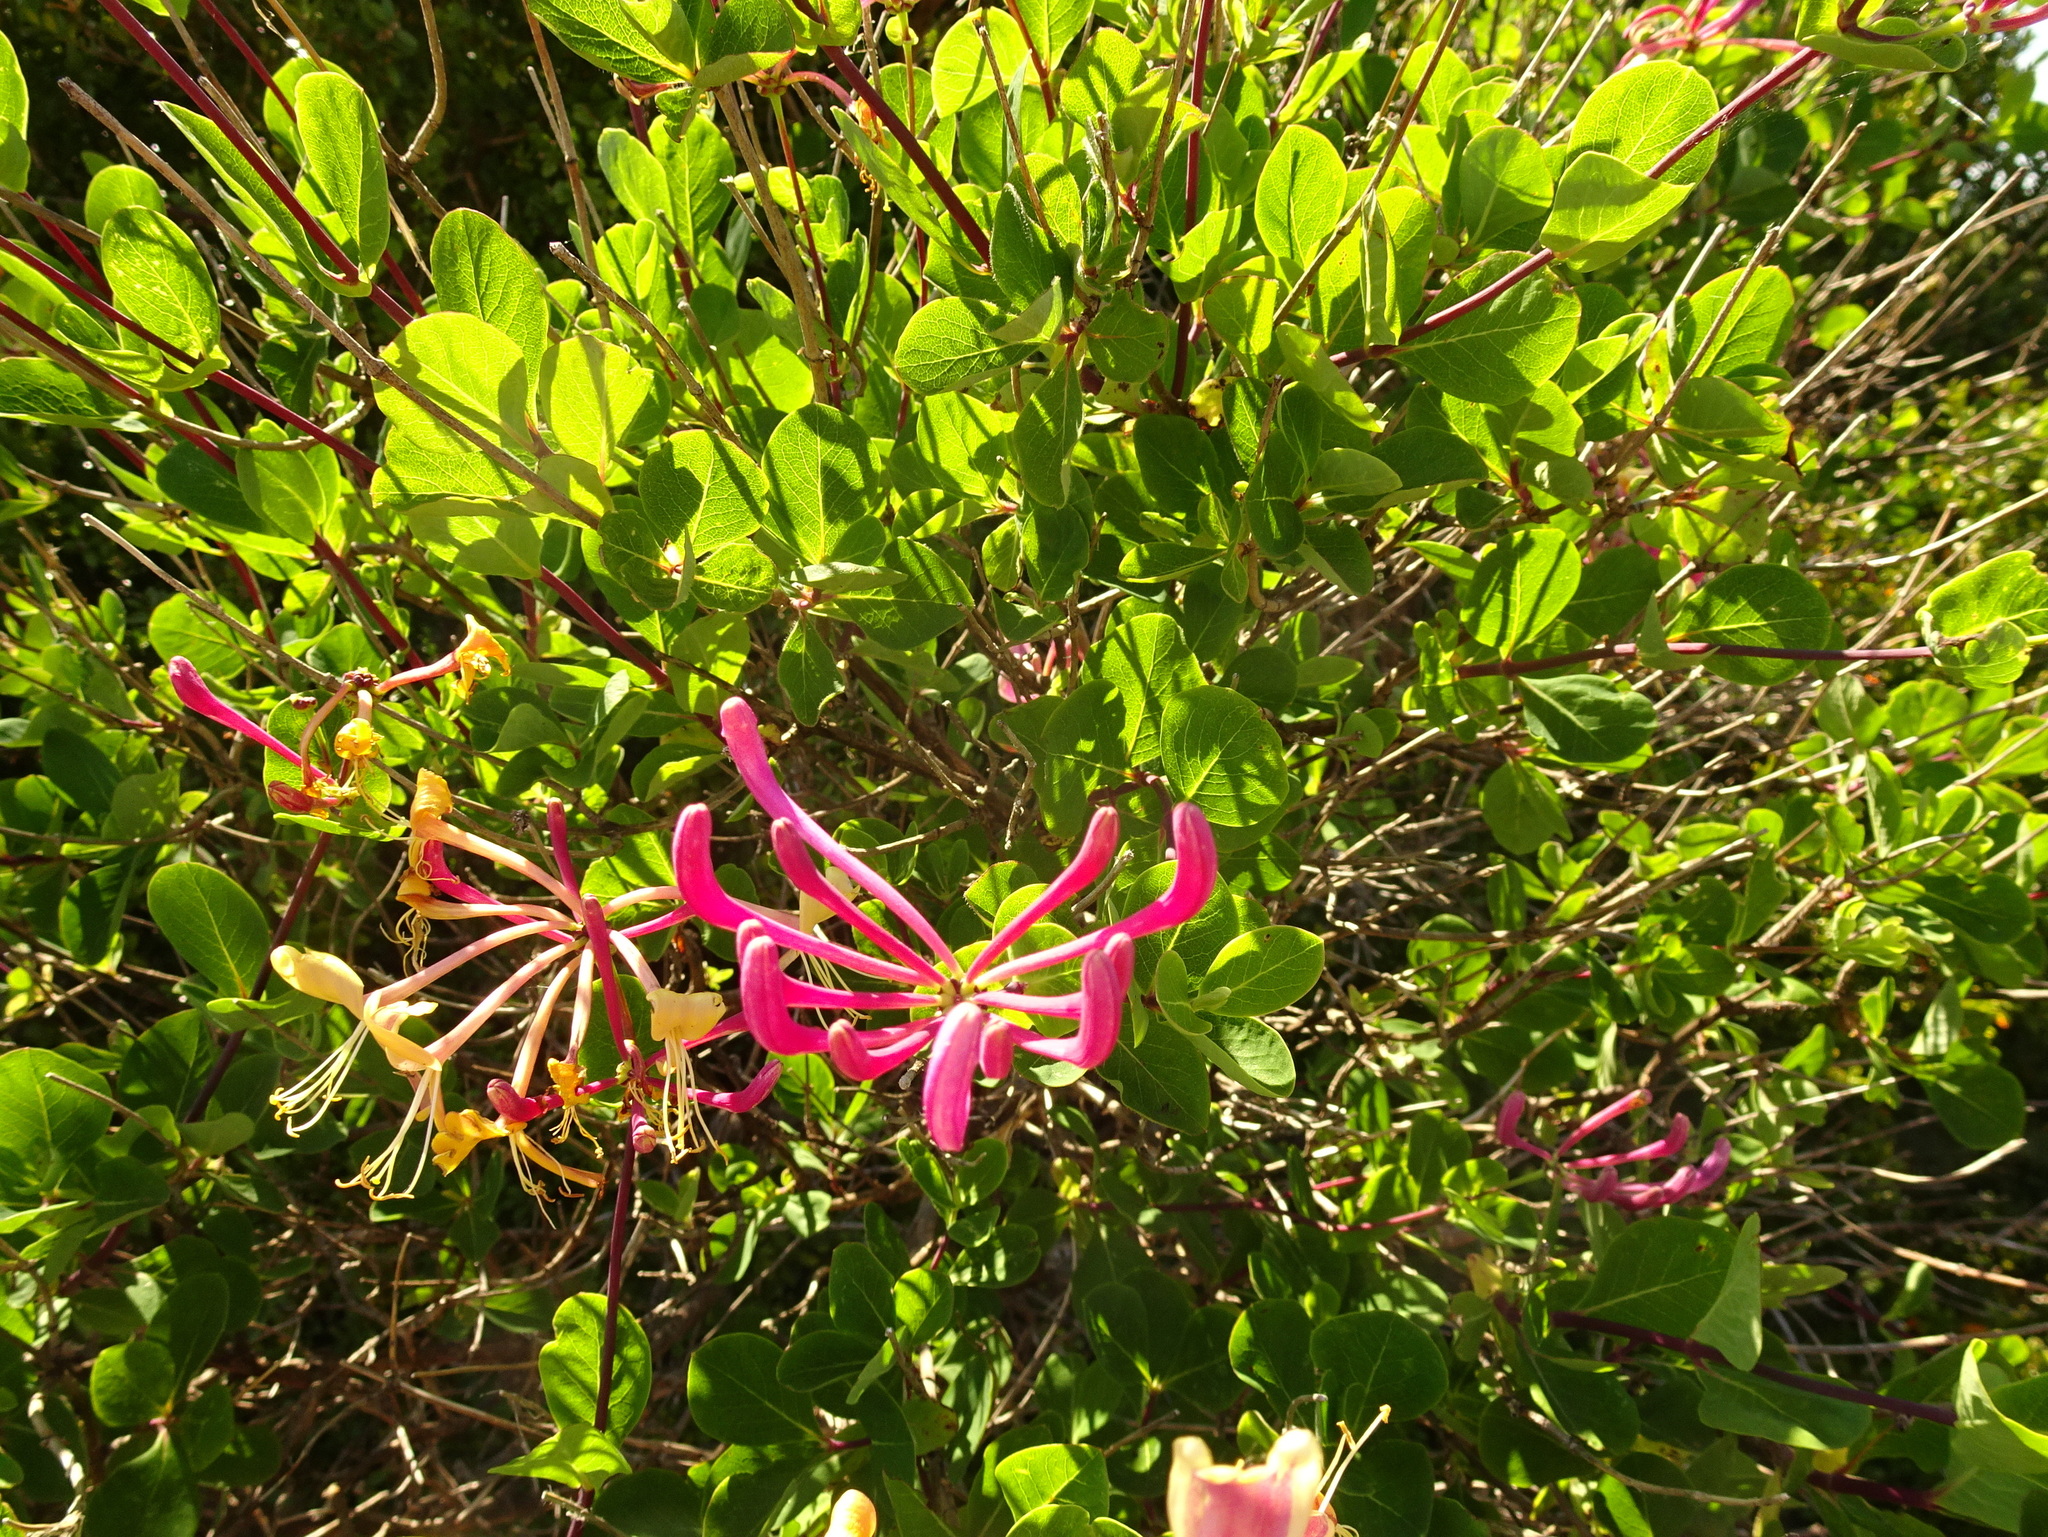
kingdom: Plantae
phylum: Tracheophyta
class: Magnoliopsida
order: Dipsacales
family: Caprifoliaceae
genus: Lonicera
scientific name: Lonicera etrusca
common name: Etruscan honeysuckle
